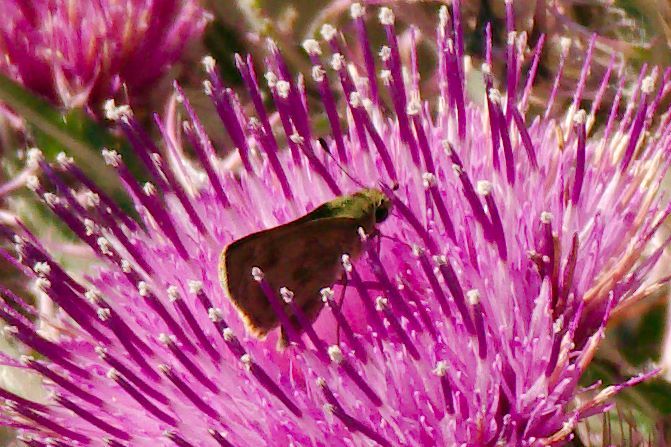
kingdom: Animalia
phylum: Arthropoda
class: Insecta
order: Lepidoptera
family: Hesperiidae
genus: Polites
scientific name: Polites vibex
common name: Whirlabout
